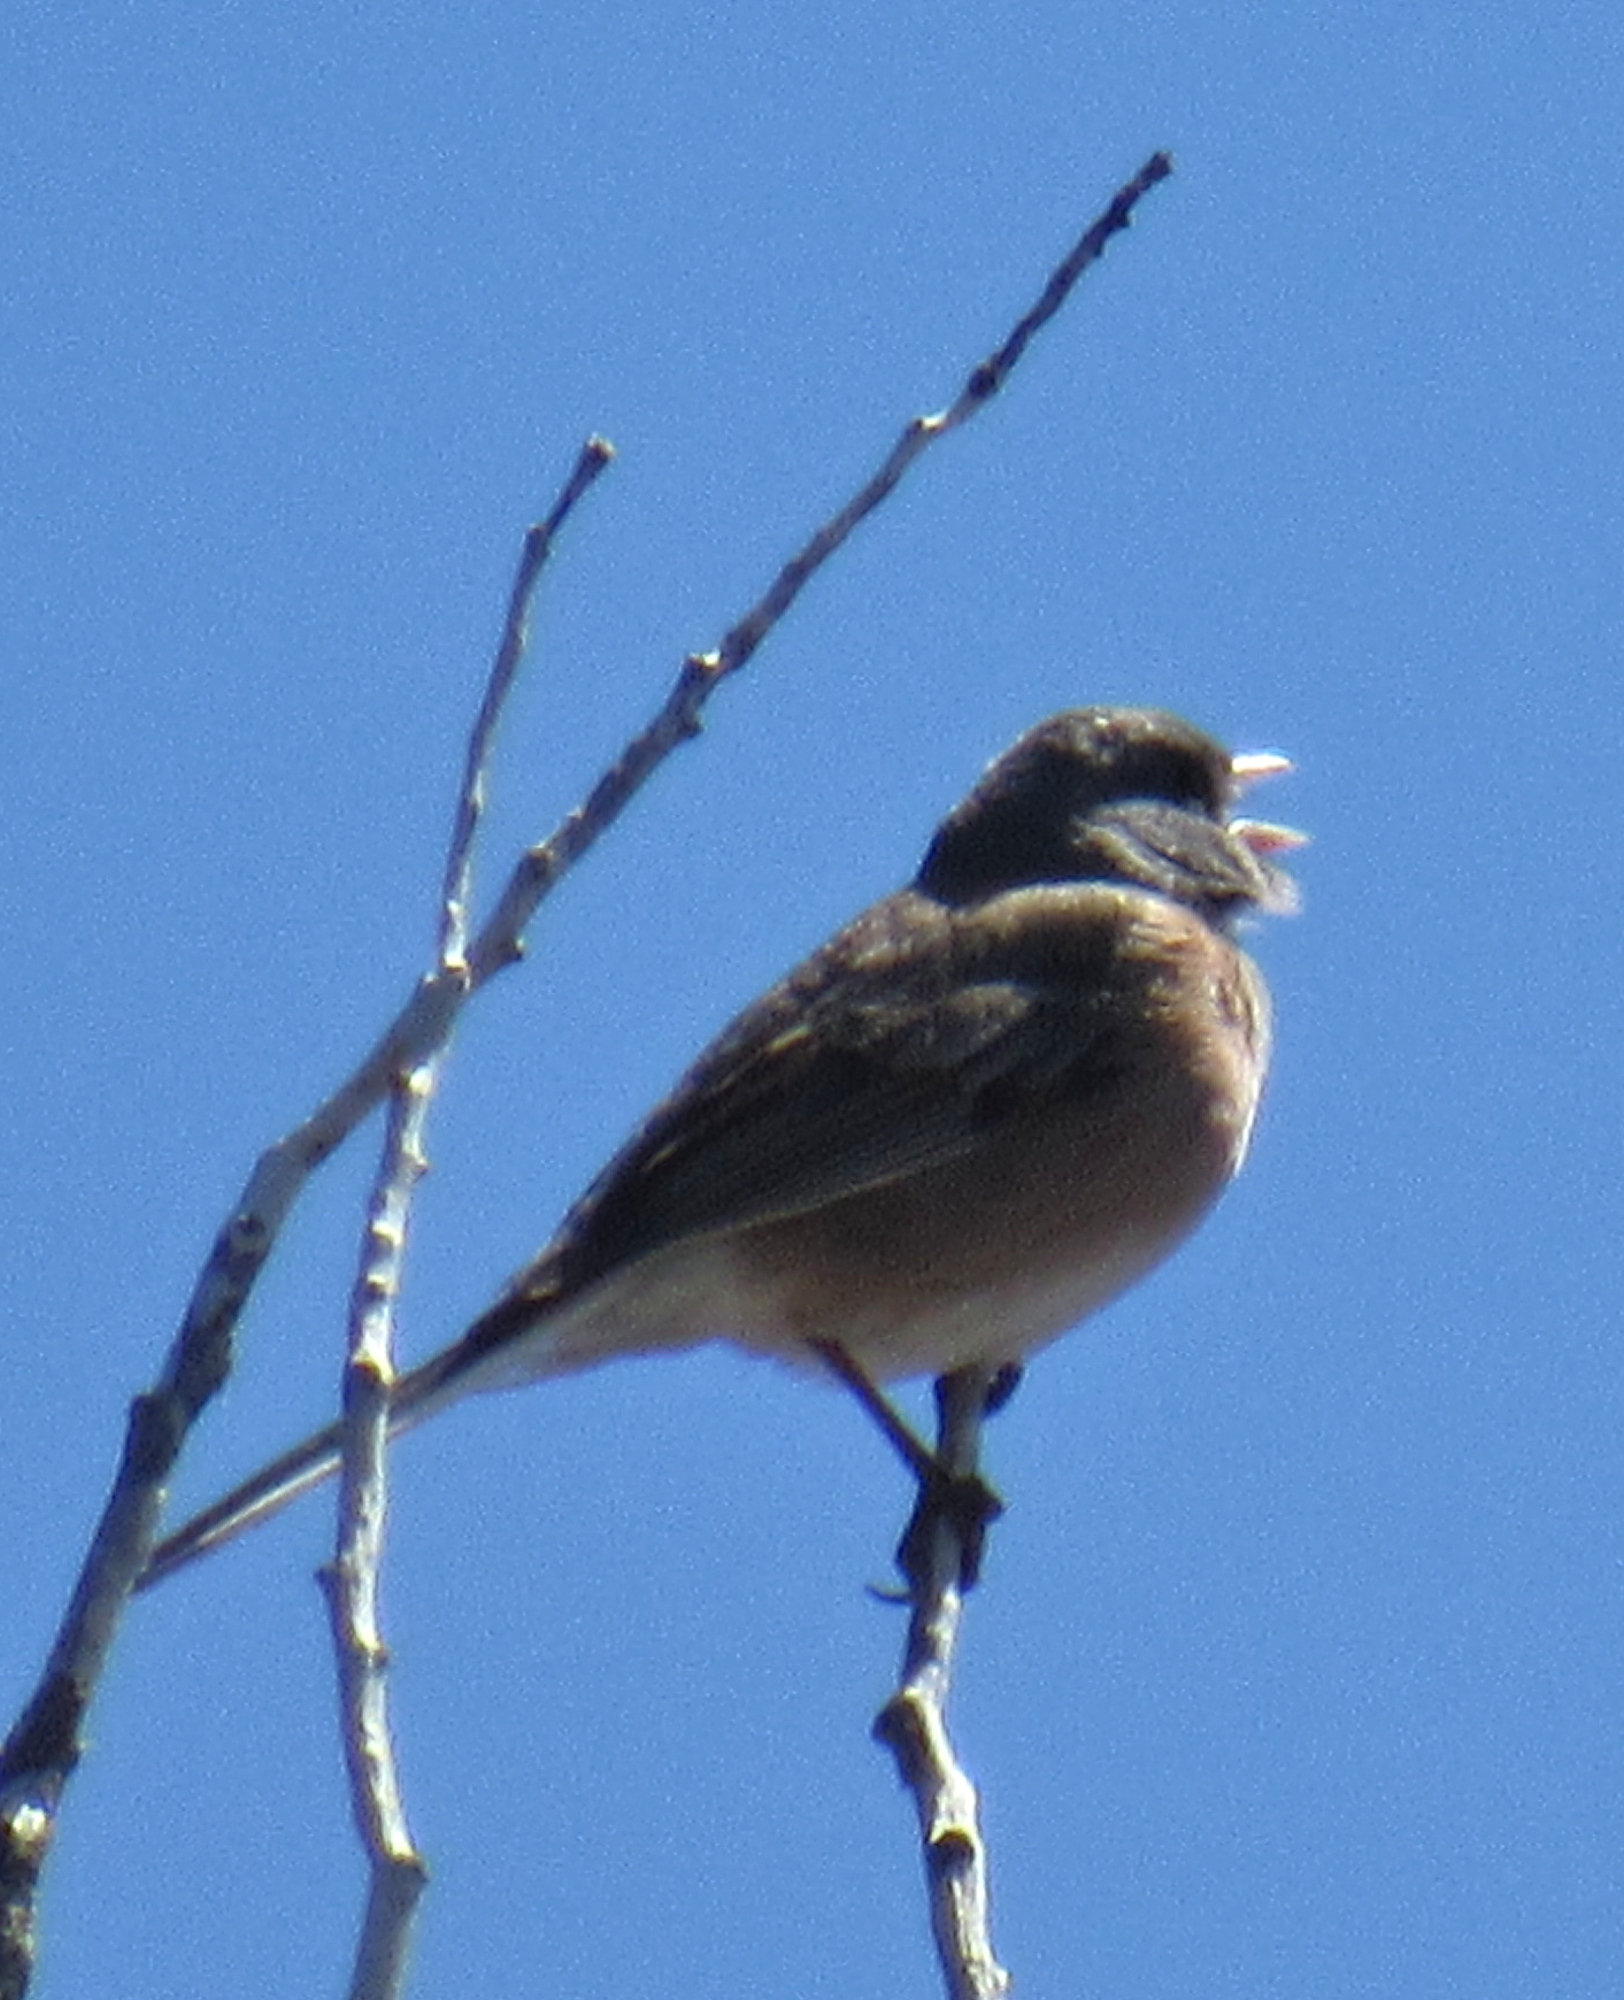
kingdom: Animalia
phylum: Chordata
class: Aves
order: Passeriformes
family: Passerellidae
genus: Junco
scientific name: Junco hyemalis
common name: Dark-eyed junco
